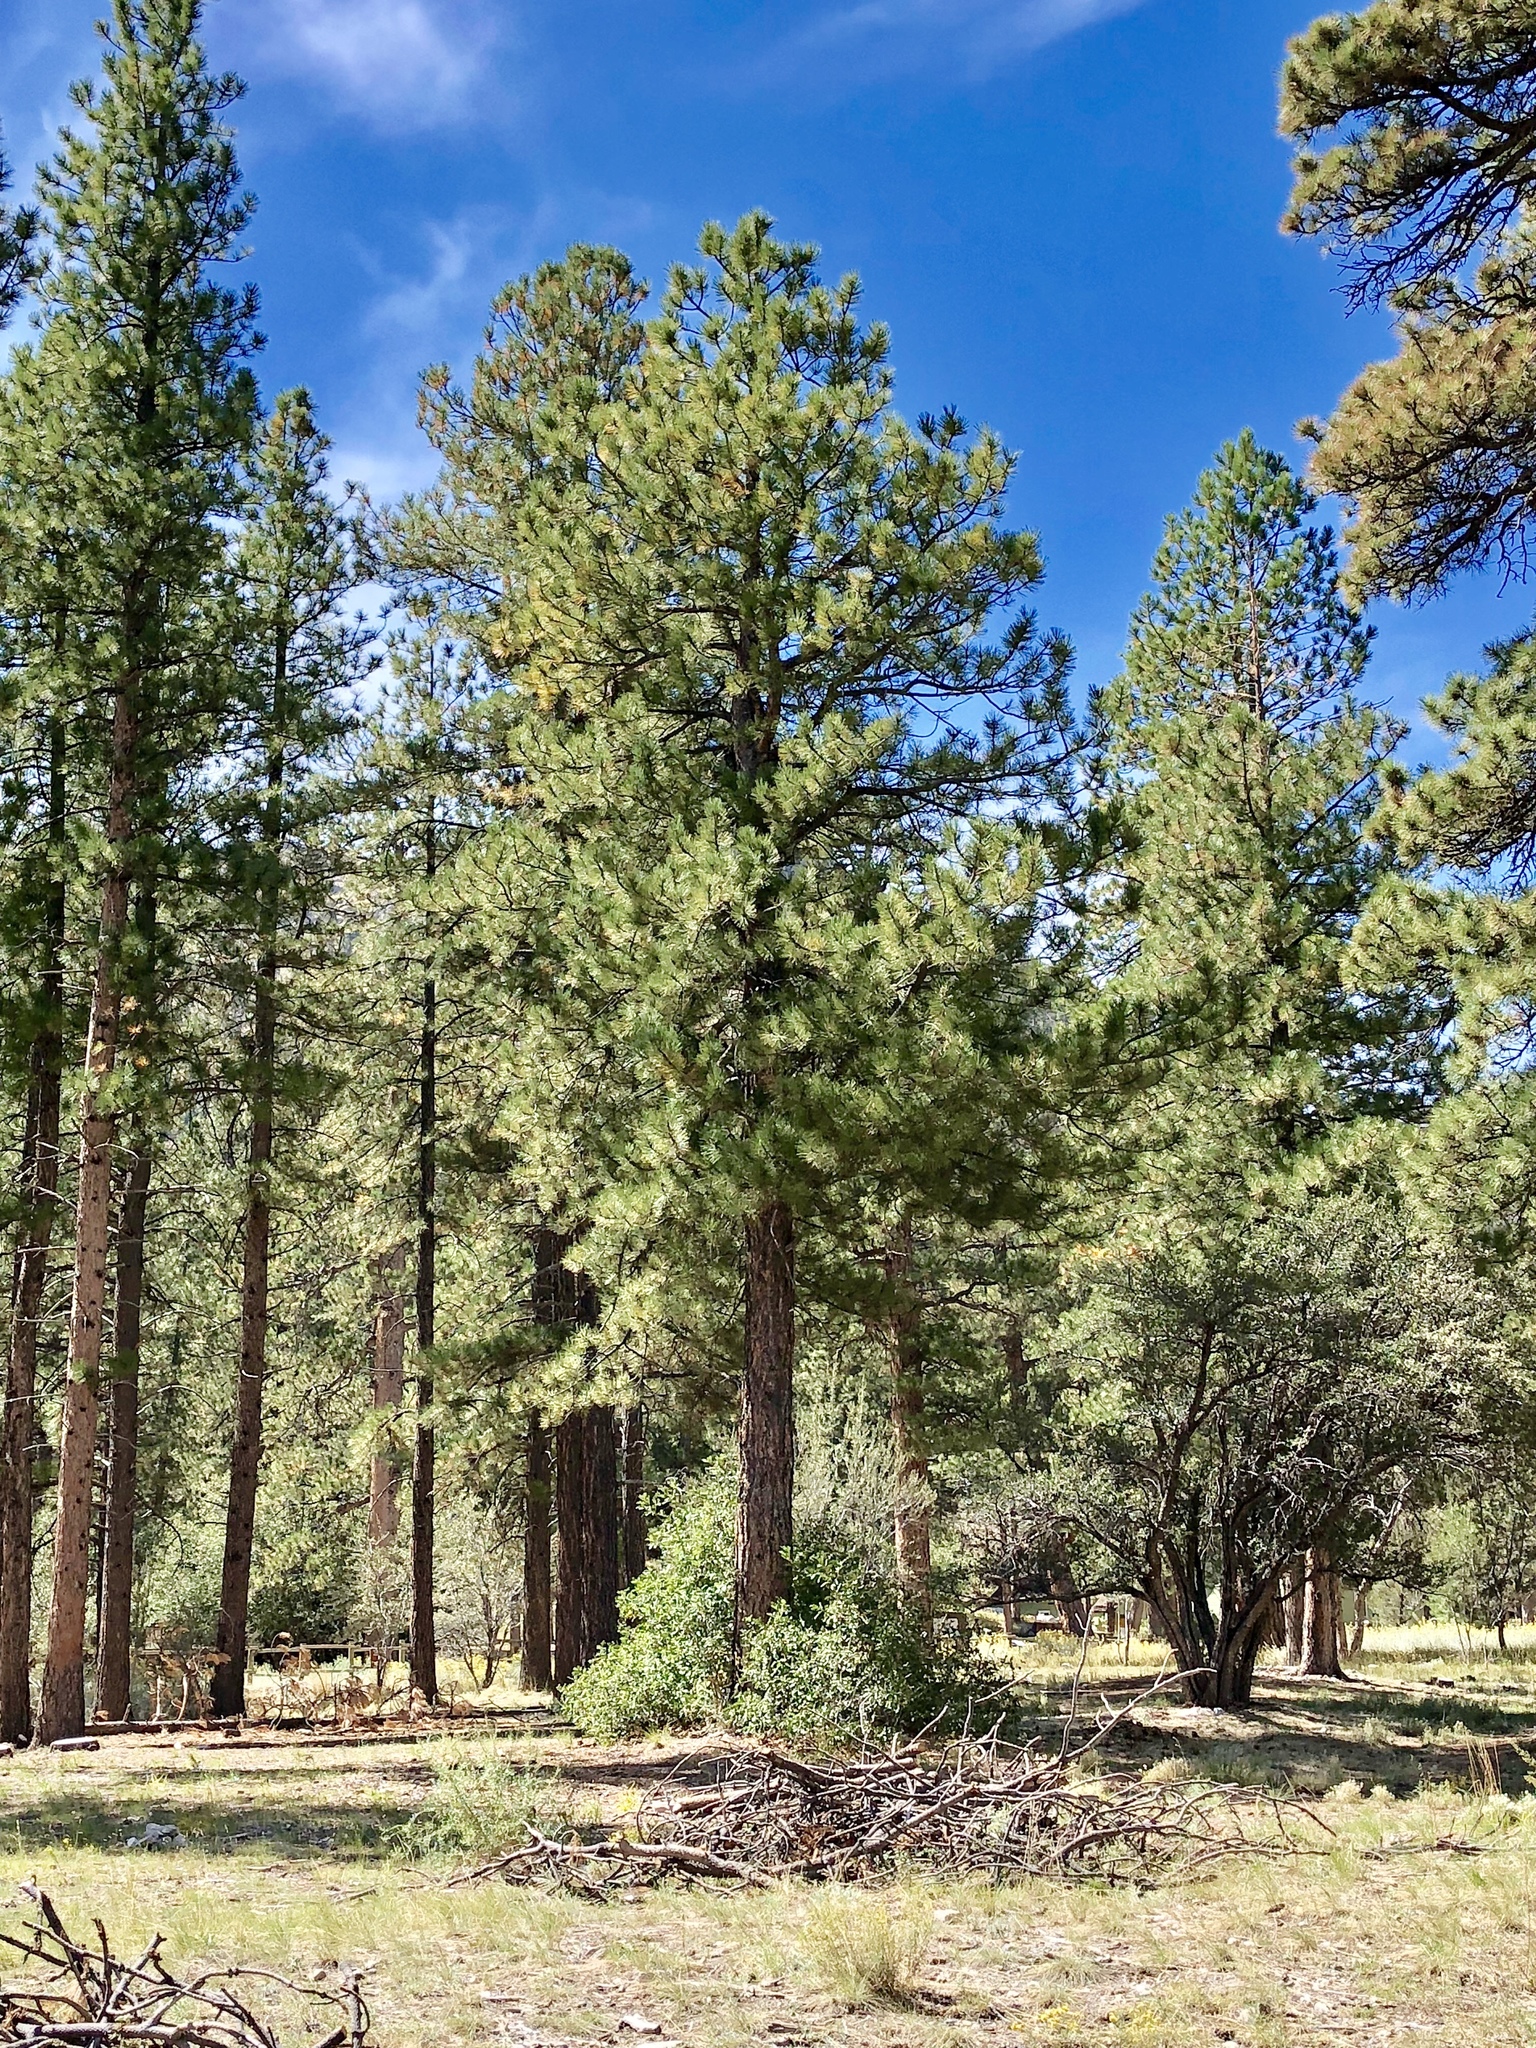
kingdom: Plantae
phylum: Tracheophyta
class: Pinopsida
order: Pinales
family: Pinaceae
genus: Pinus
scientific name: Pinus ponderosa
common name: Western yellow-pine
